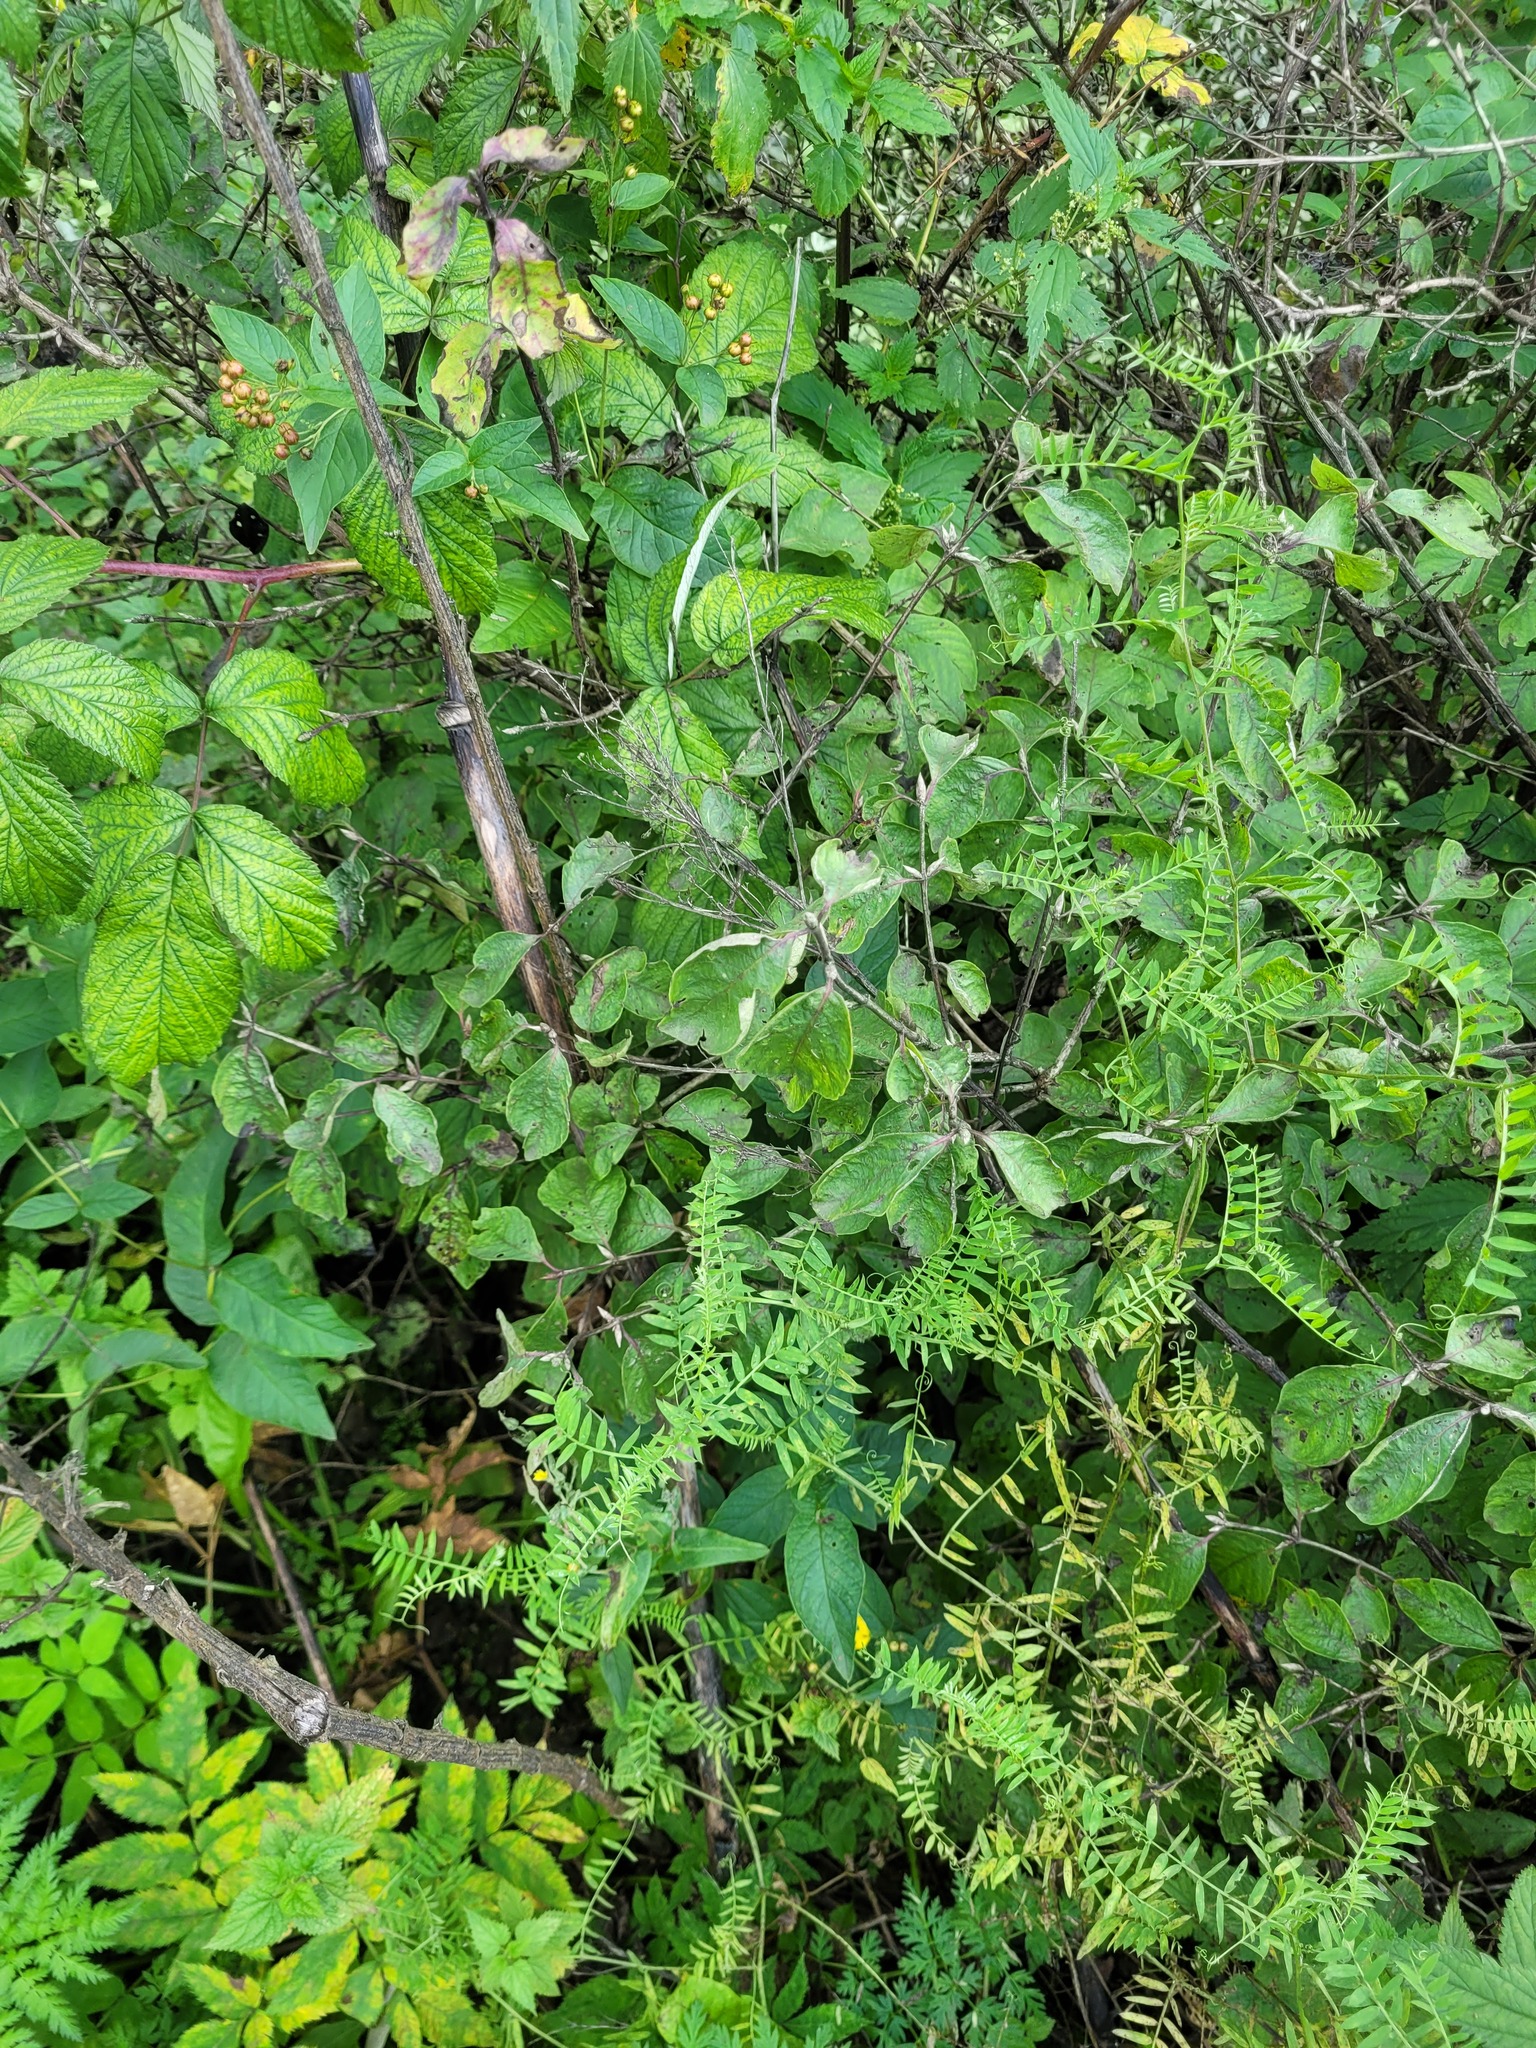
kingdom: Plantae
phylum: Tracheophyta
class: Magnoliopsida
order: Dipsacales
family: Caprifoliaceae
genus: Lonicera
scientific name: Lonicera xylosteum
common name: Fly honeysuckle
